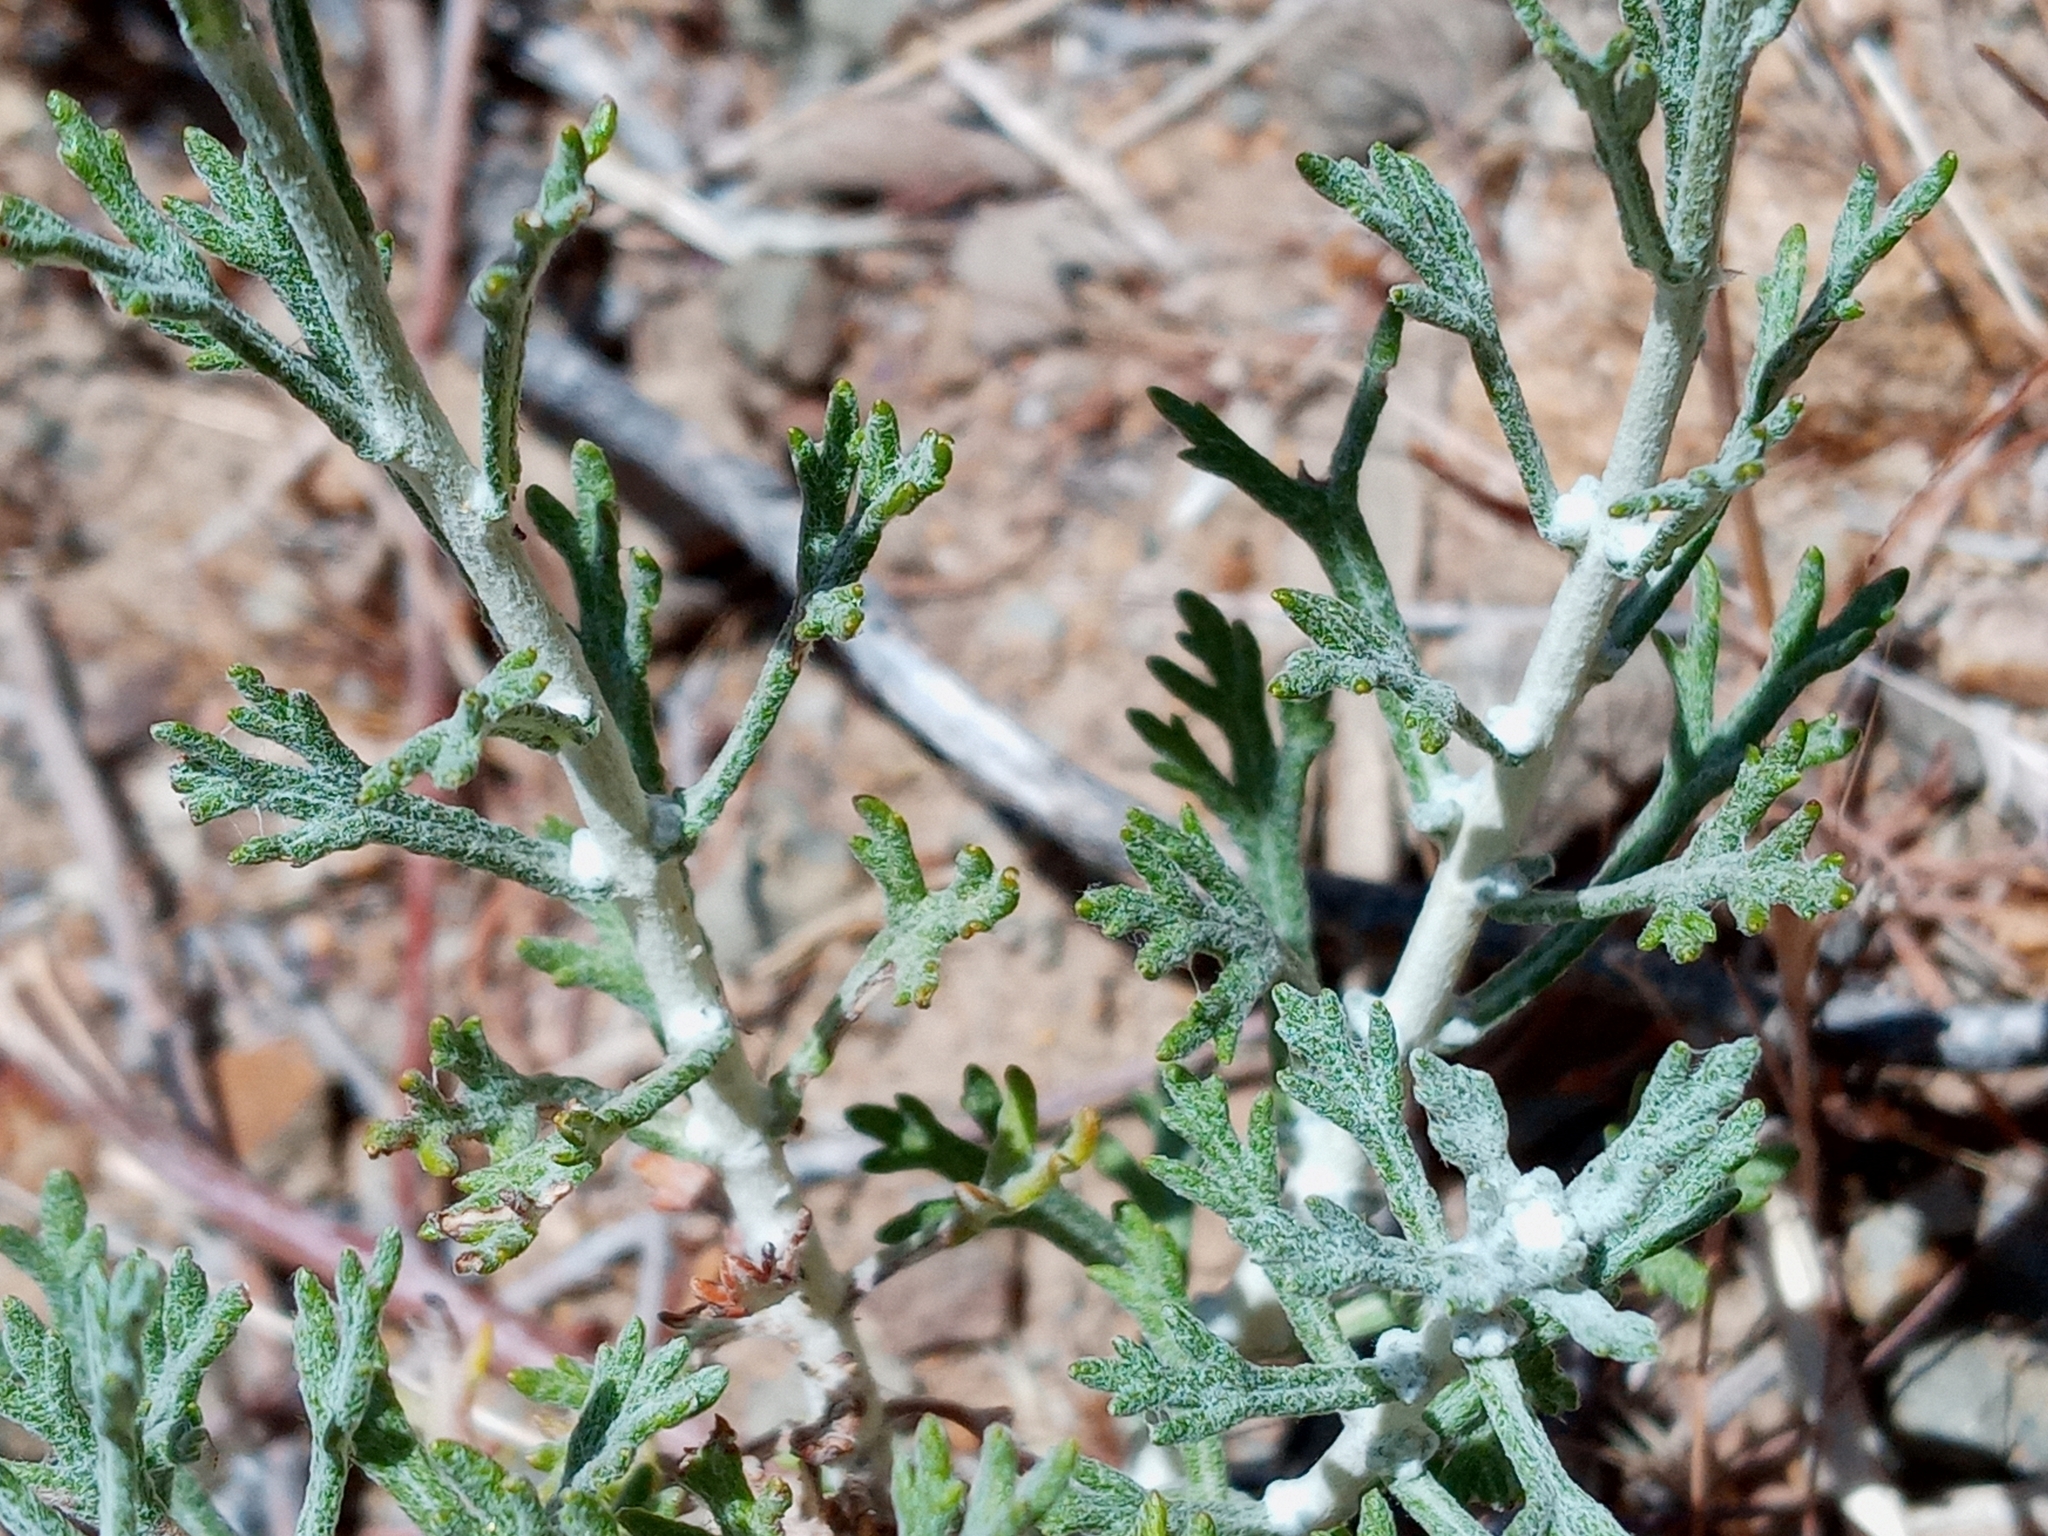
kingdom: Plantae
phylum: Tracheophyta
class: Magnoliopsida
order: Asterales
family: Asteraceae
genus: Eriophyllum
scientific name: Eriophyllum confertiflorum
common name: Golden-yarrow
